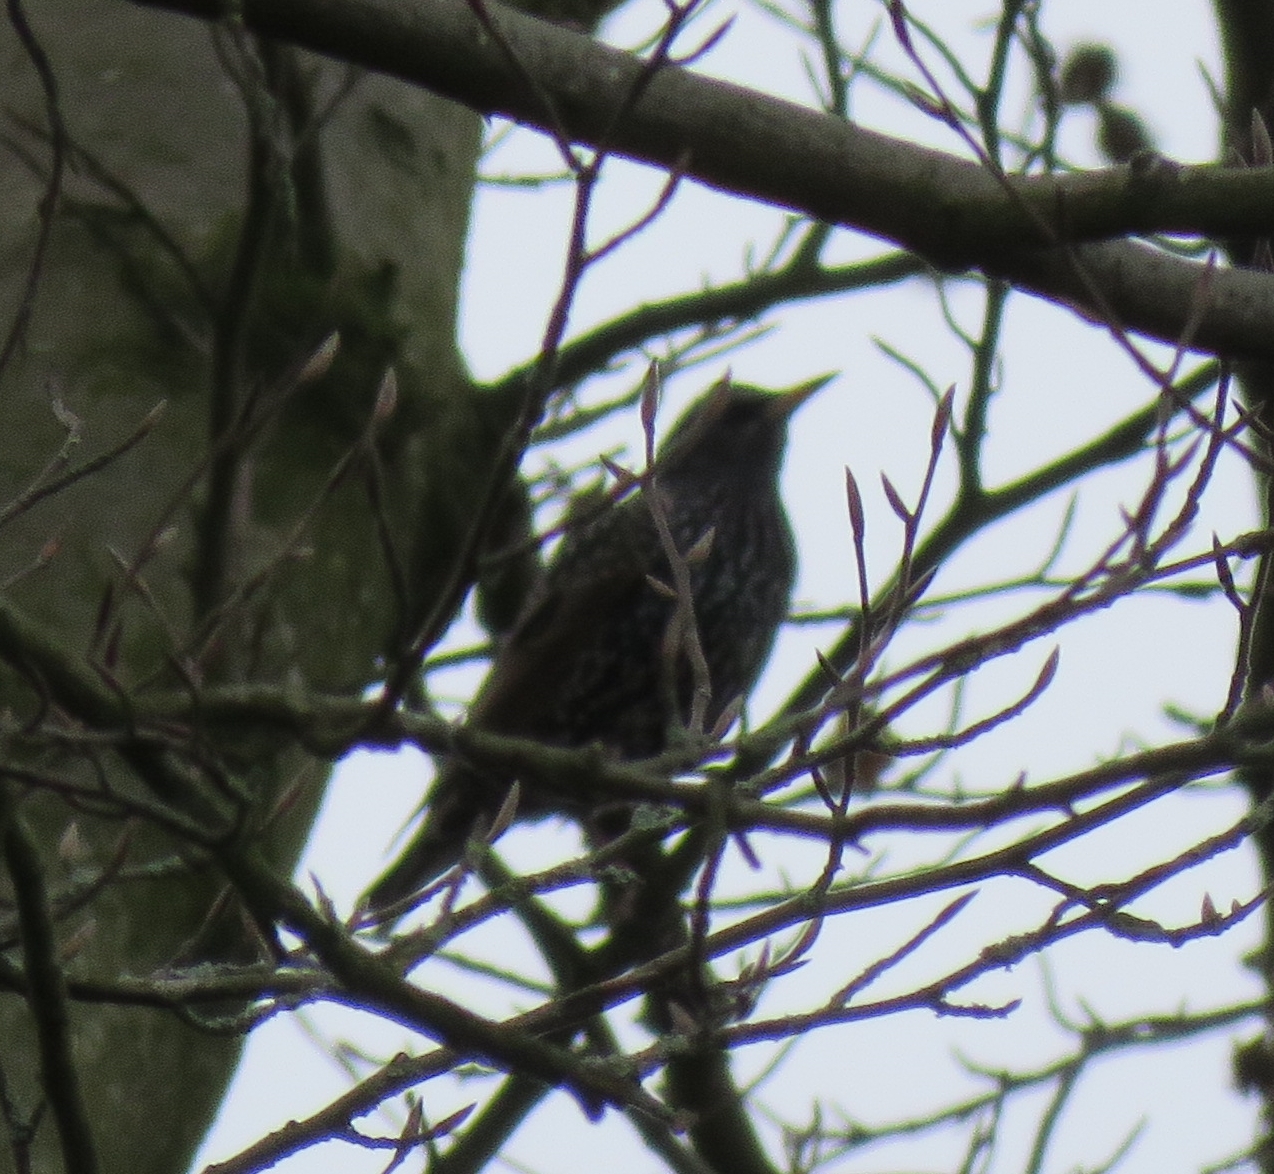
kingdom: Animalia
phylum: Chordata
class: Aves
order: Passeriformes
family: Sturnidae
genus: Sturnus
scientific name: Sturnus vulgaris
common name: Common starling
